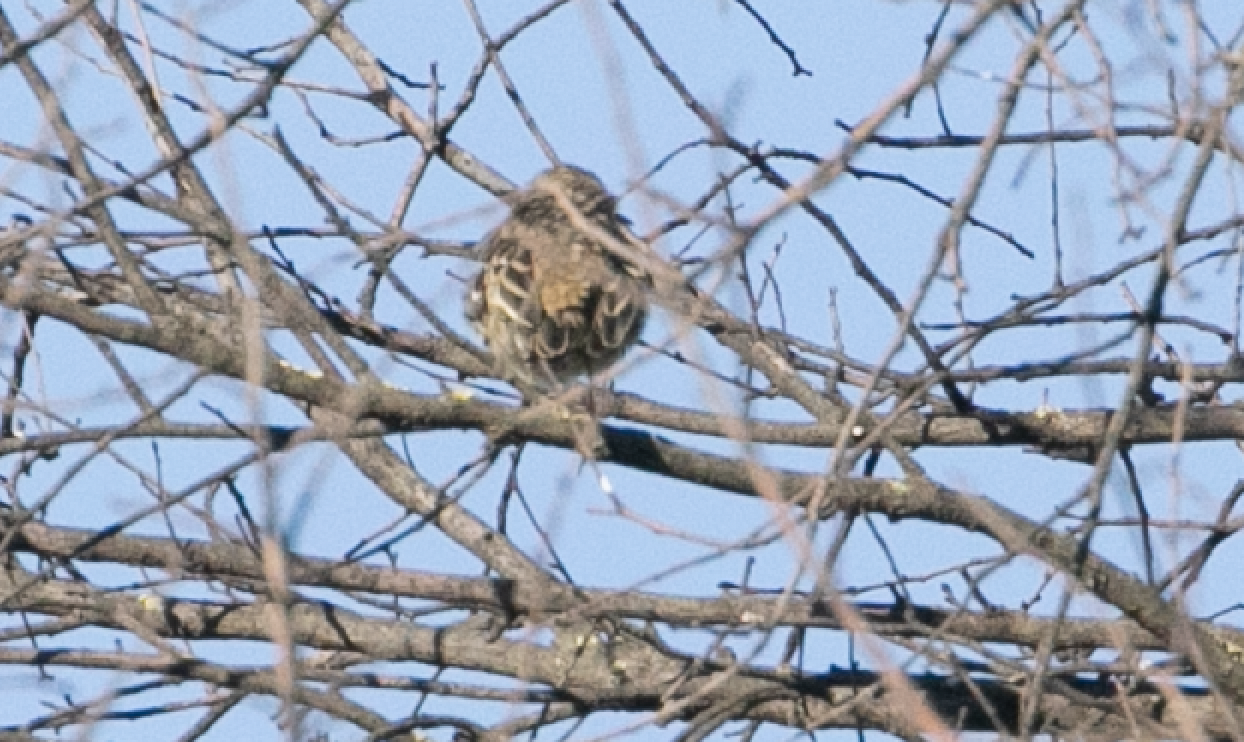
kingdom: Animalia
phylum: Chordata
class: Aves
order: Passeriformes
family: Motacillidae
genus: Anthus
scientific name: Anthus pratensis
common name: Meadow pipit
